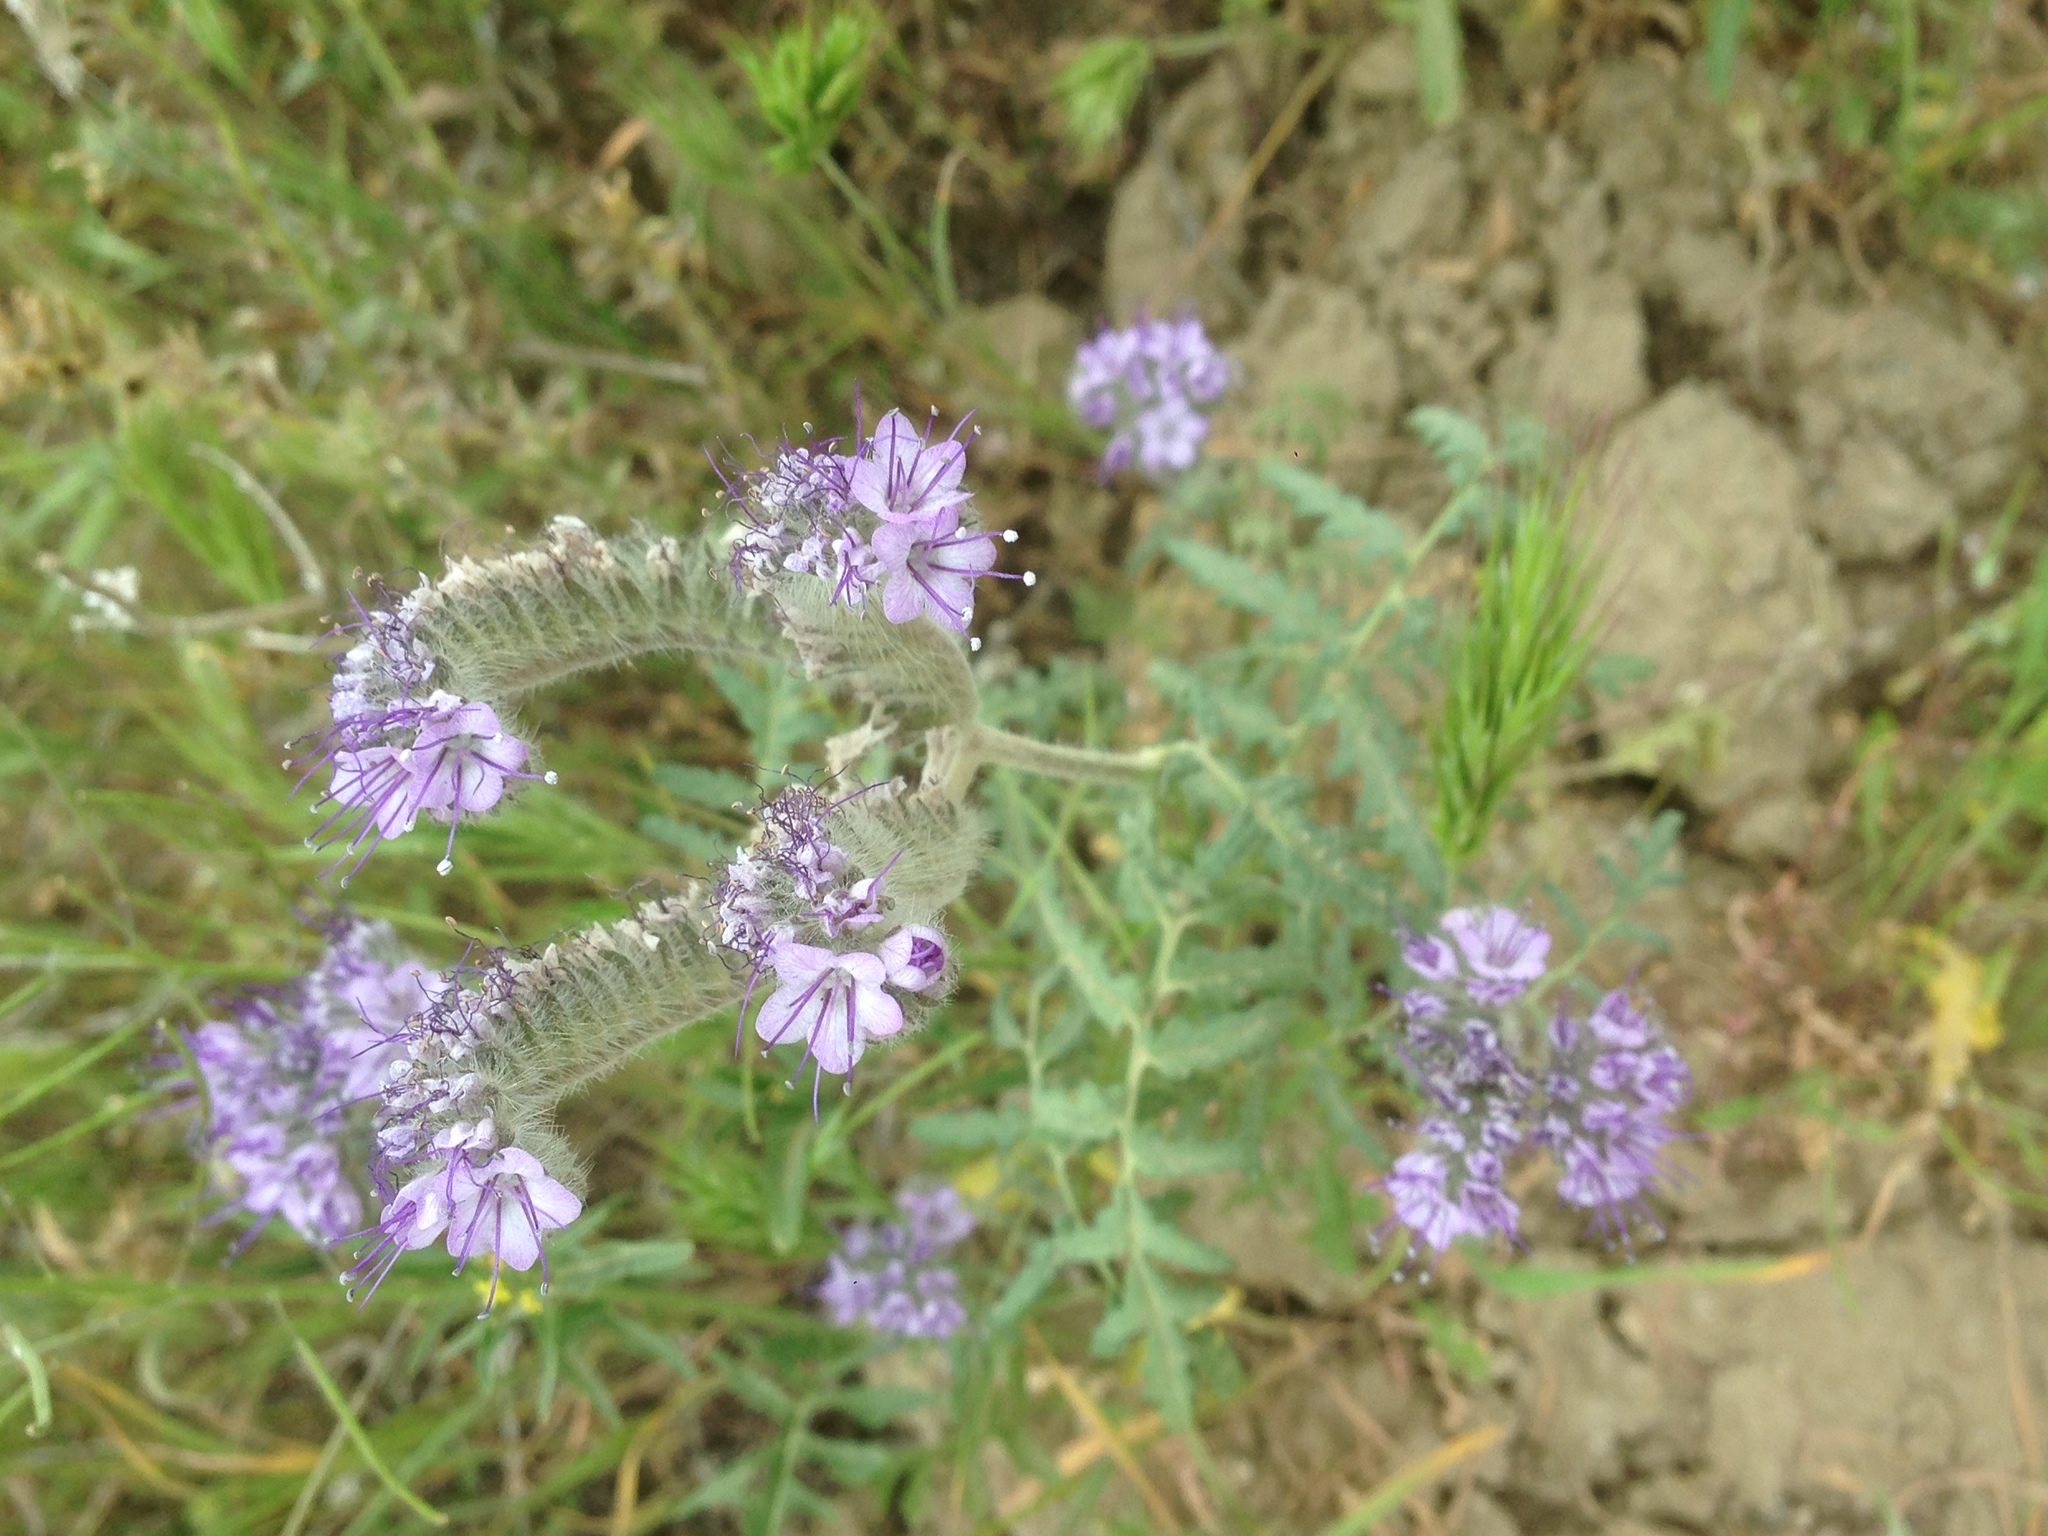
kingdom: Plantae
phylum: Tracheophyta
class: Magnoliopsida
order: Boraginales
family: Hydrophyllaceae
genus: Phacelia
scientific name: Phacelia tanacetifolia
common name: Phacelia
